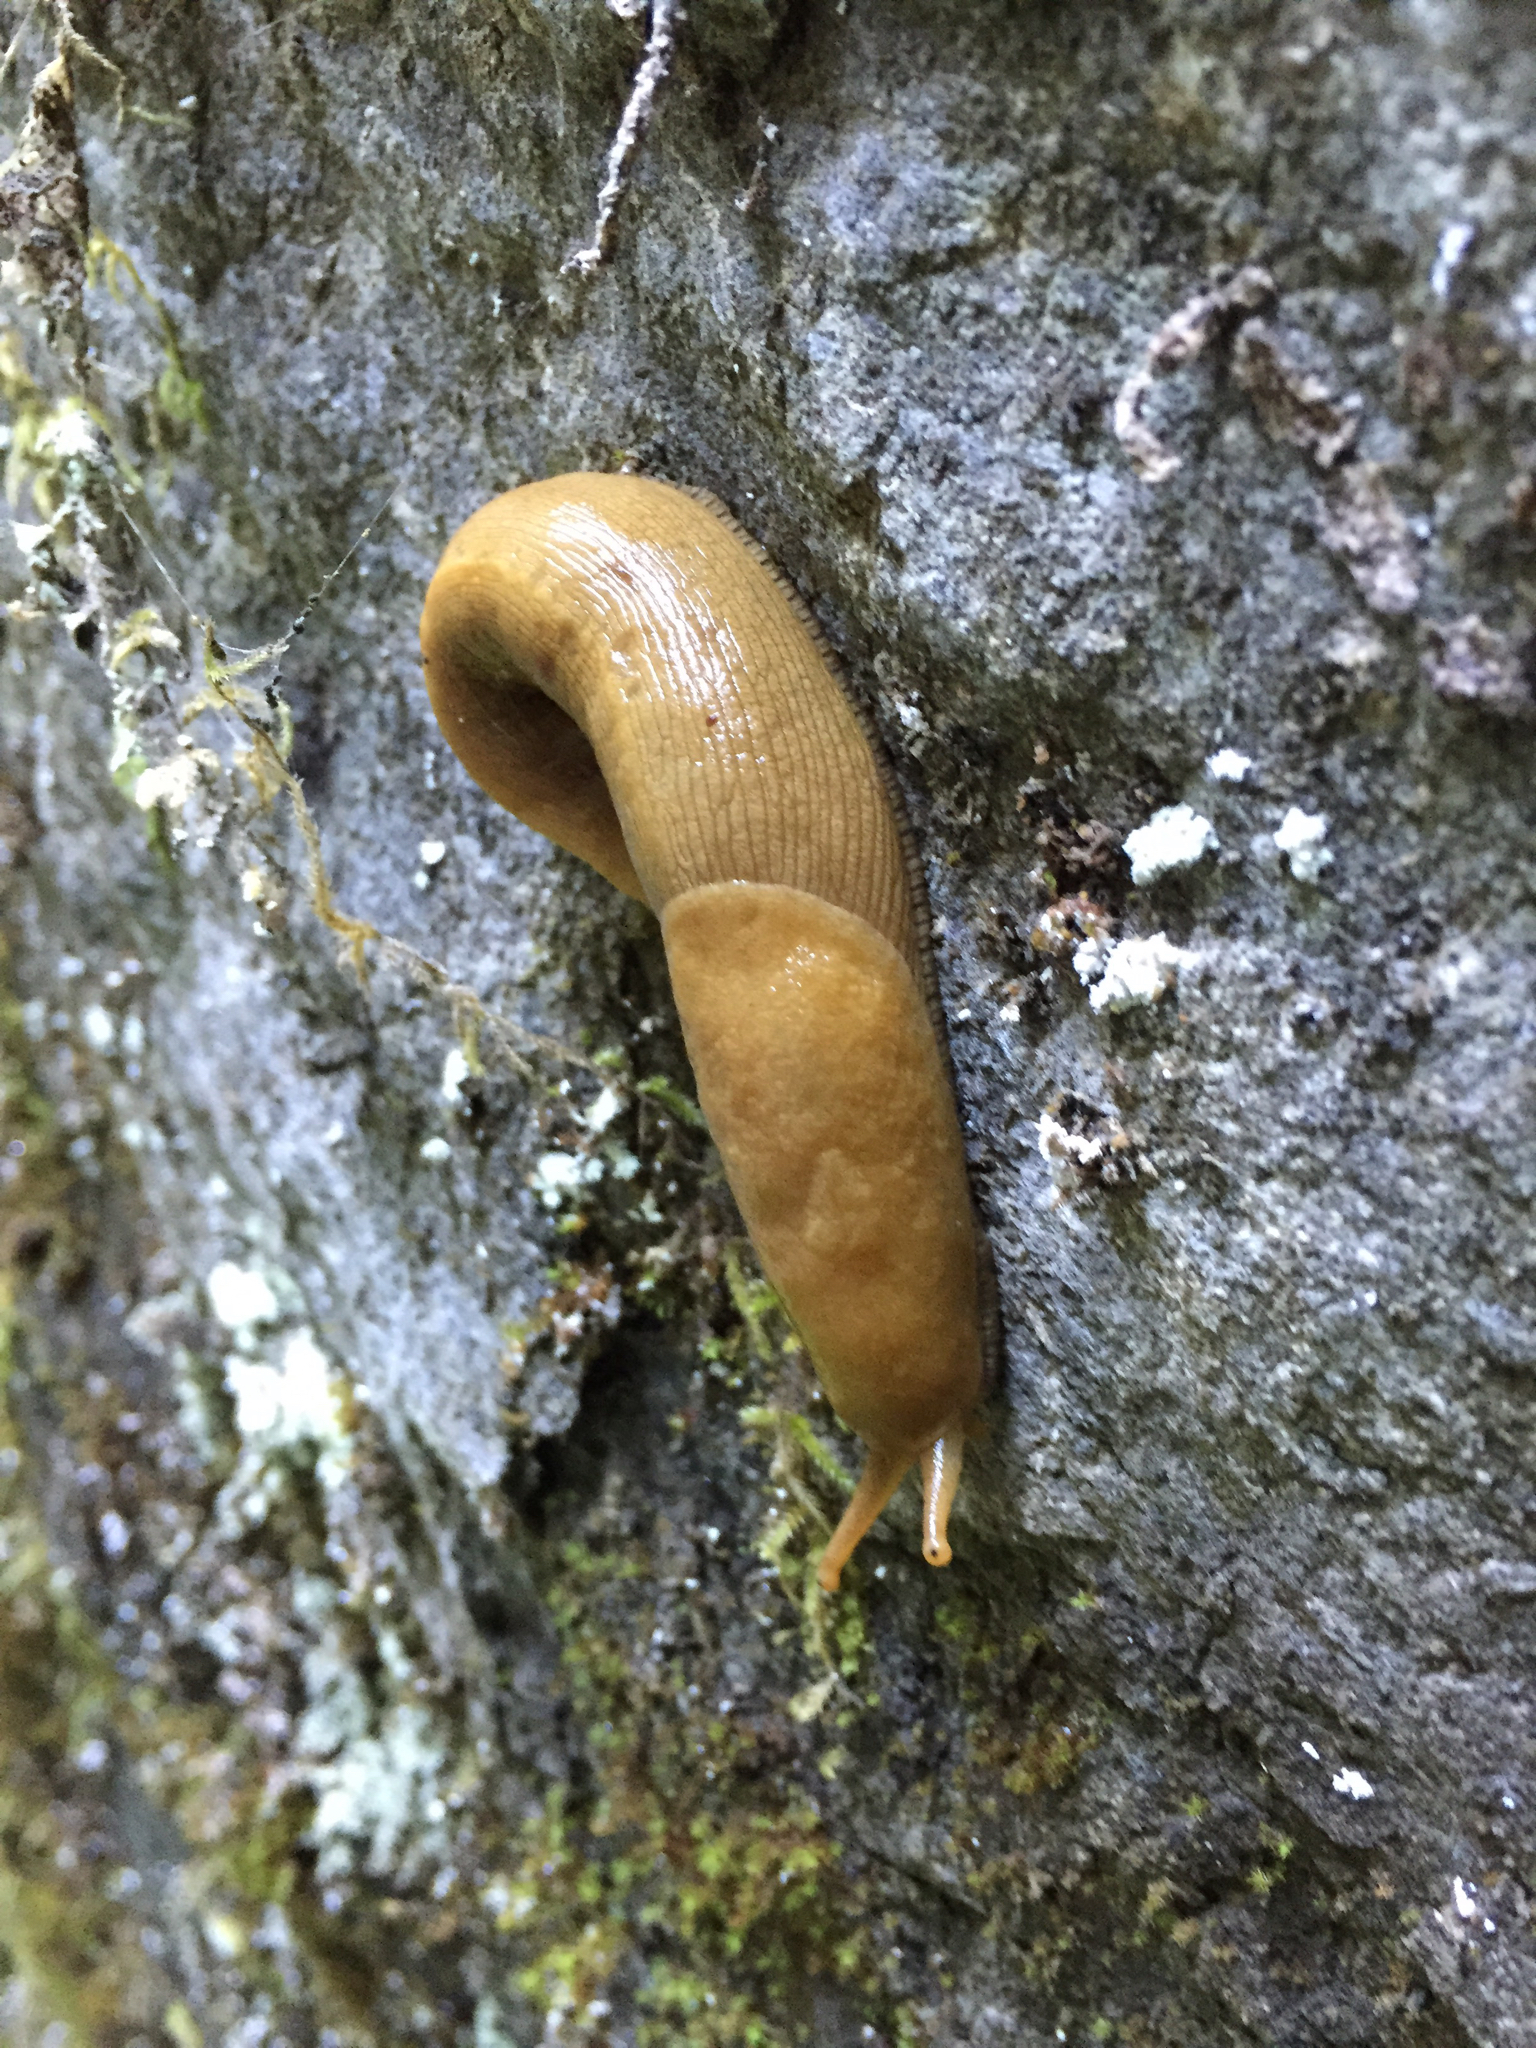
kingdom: Animalia
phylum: Mollusca
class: Gastropoda
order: Stylommatophora
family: Ariolimacidae
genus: Ariolimax
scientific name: Ariolimax buttoni
